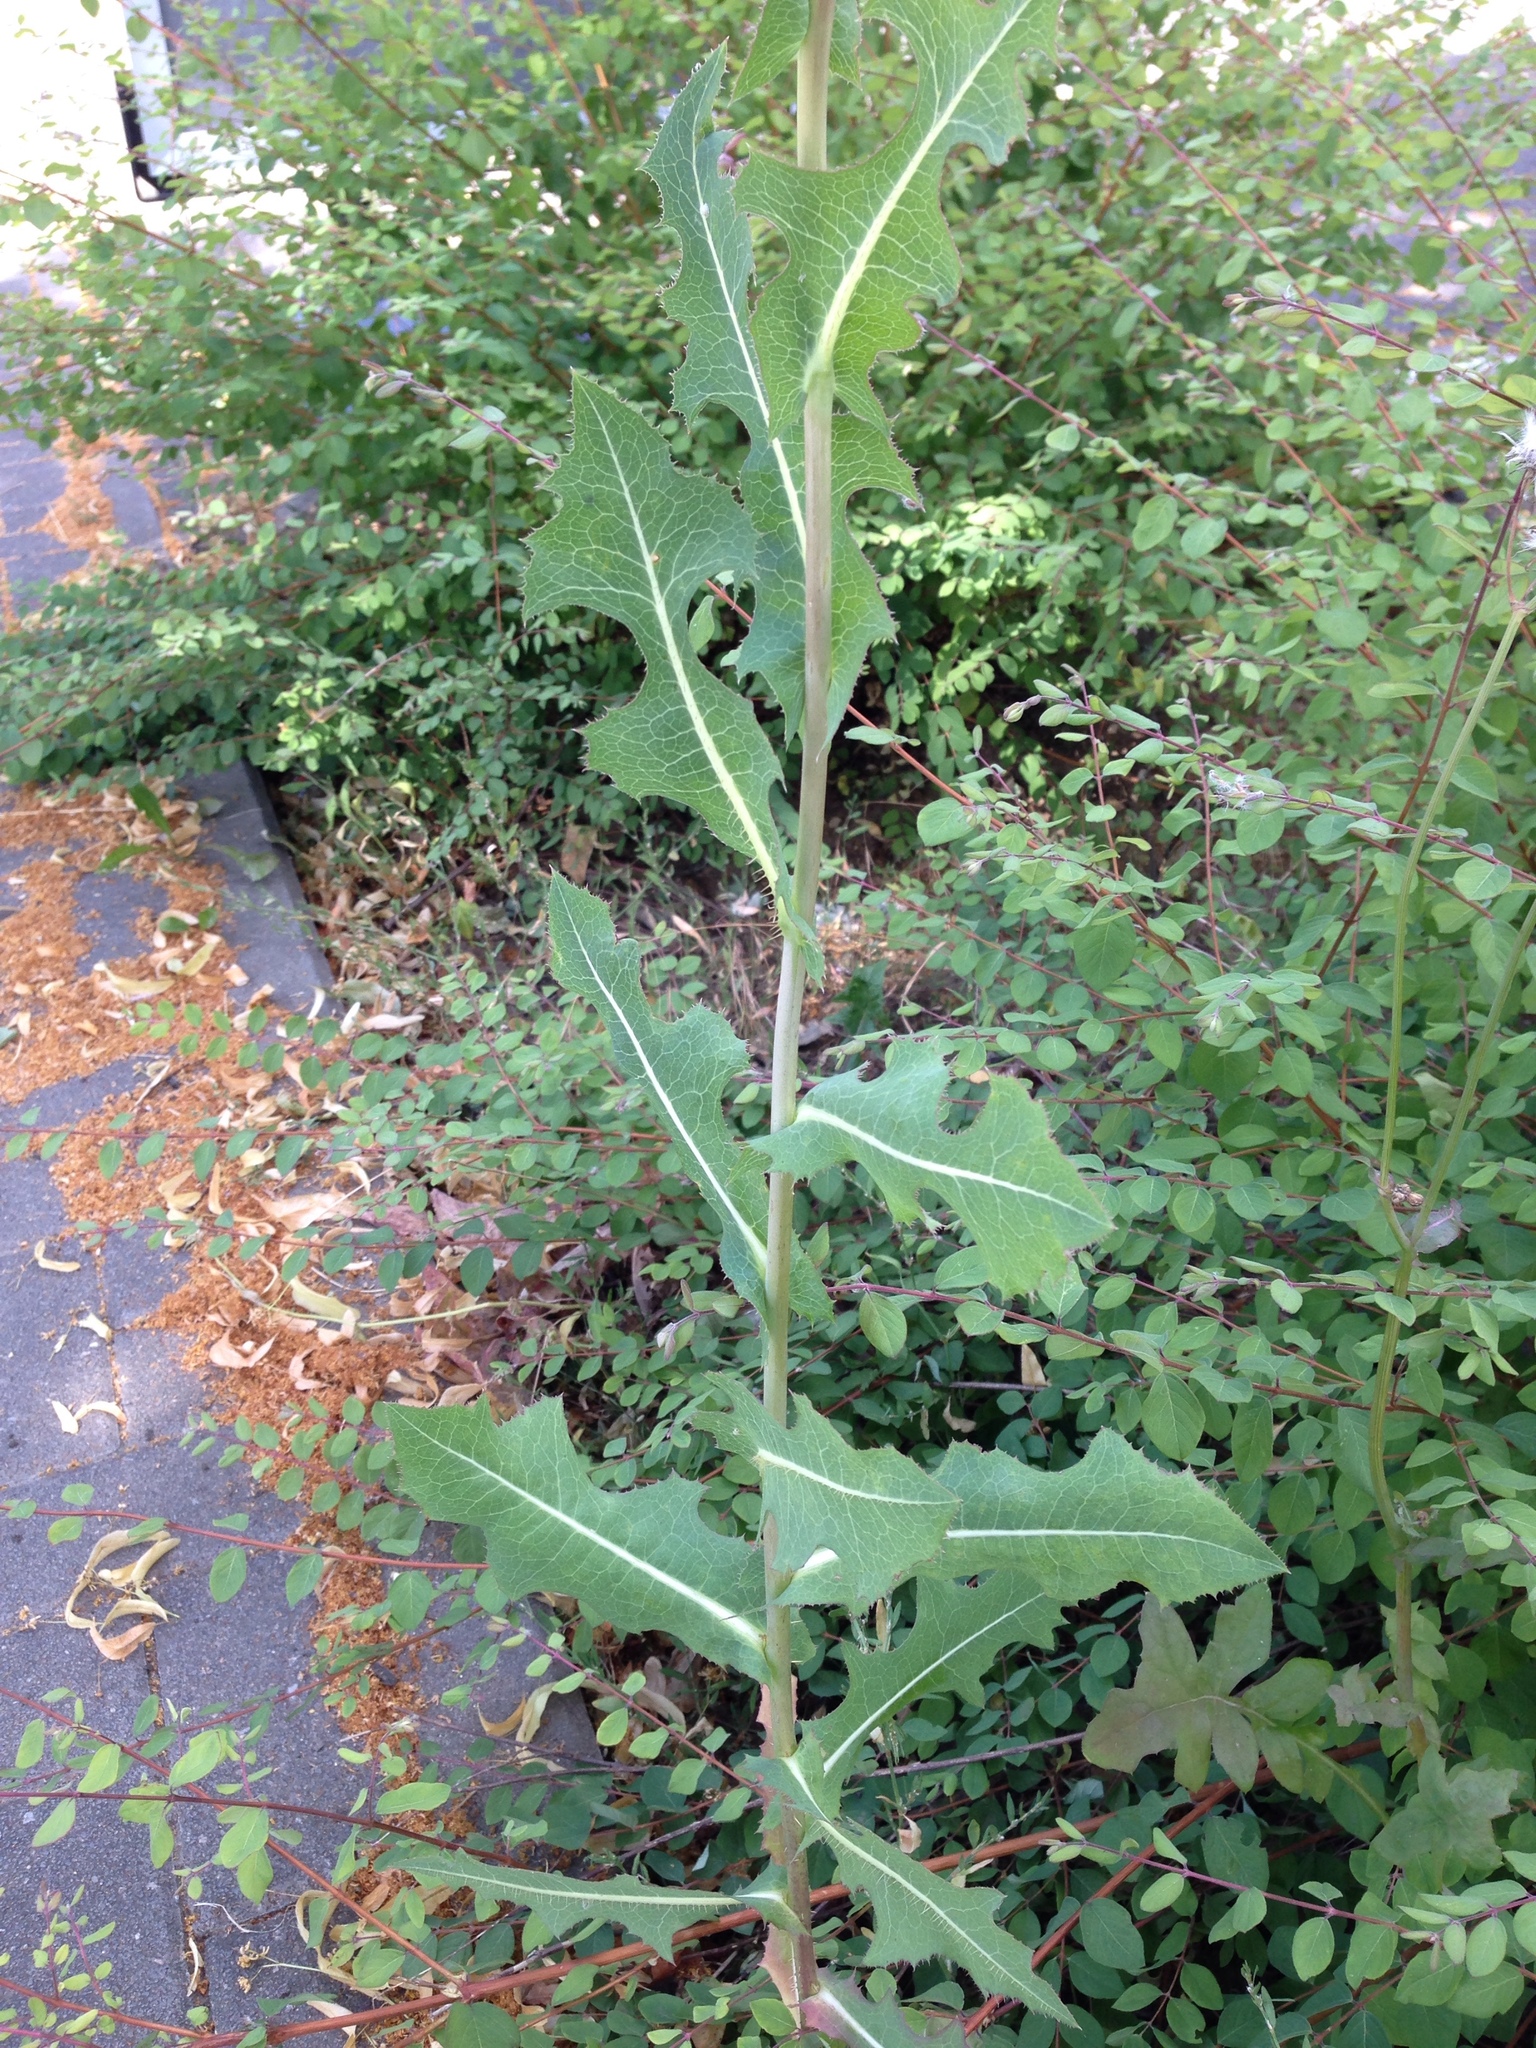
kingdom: Plantae
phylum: Tracheophyta
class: Magnoliopsida
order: Asterales
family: Asteraceae
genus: Lactuca
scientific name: Lactuca serriola
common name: Prickly lettuce
